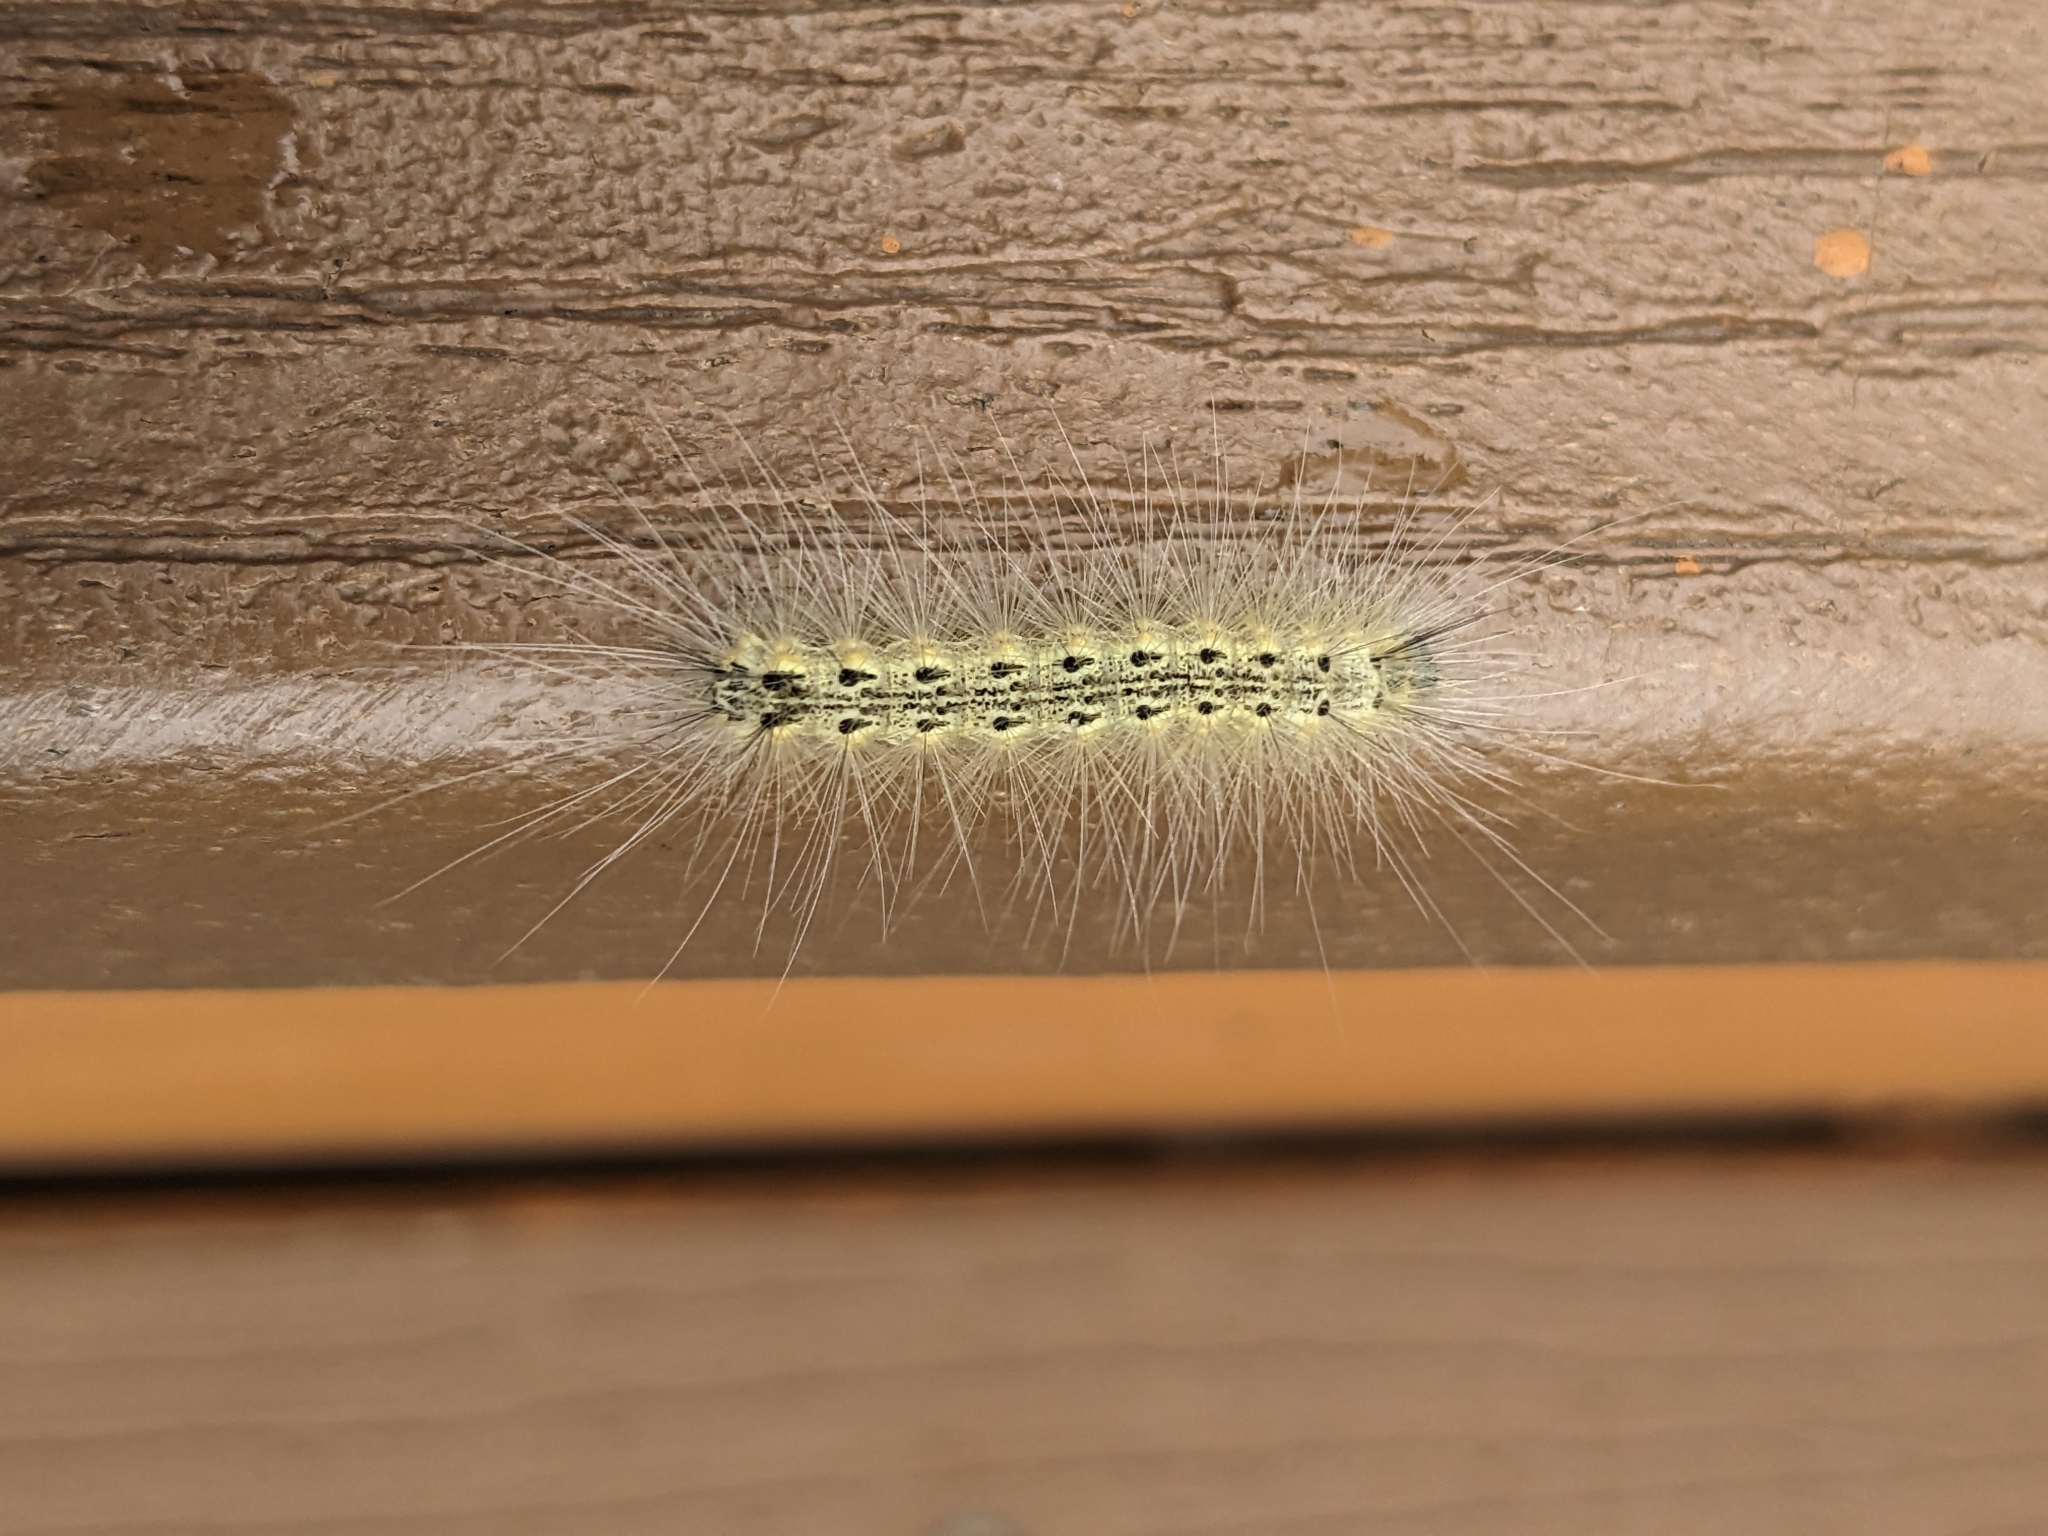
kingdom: Animalia
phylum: Arthropoda
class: Insecta
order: Lepidoptera
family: Erebidae
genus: Hyphantria
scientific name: Hyphantria cunea
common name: American white moth
